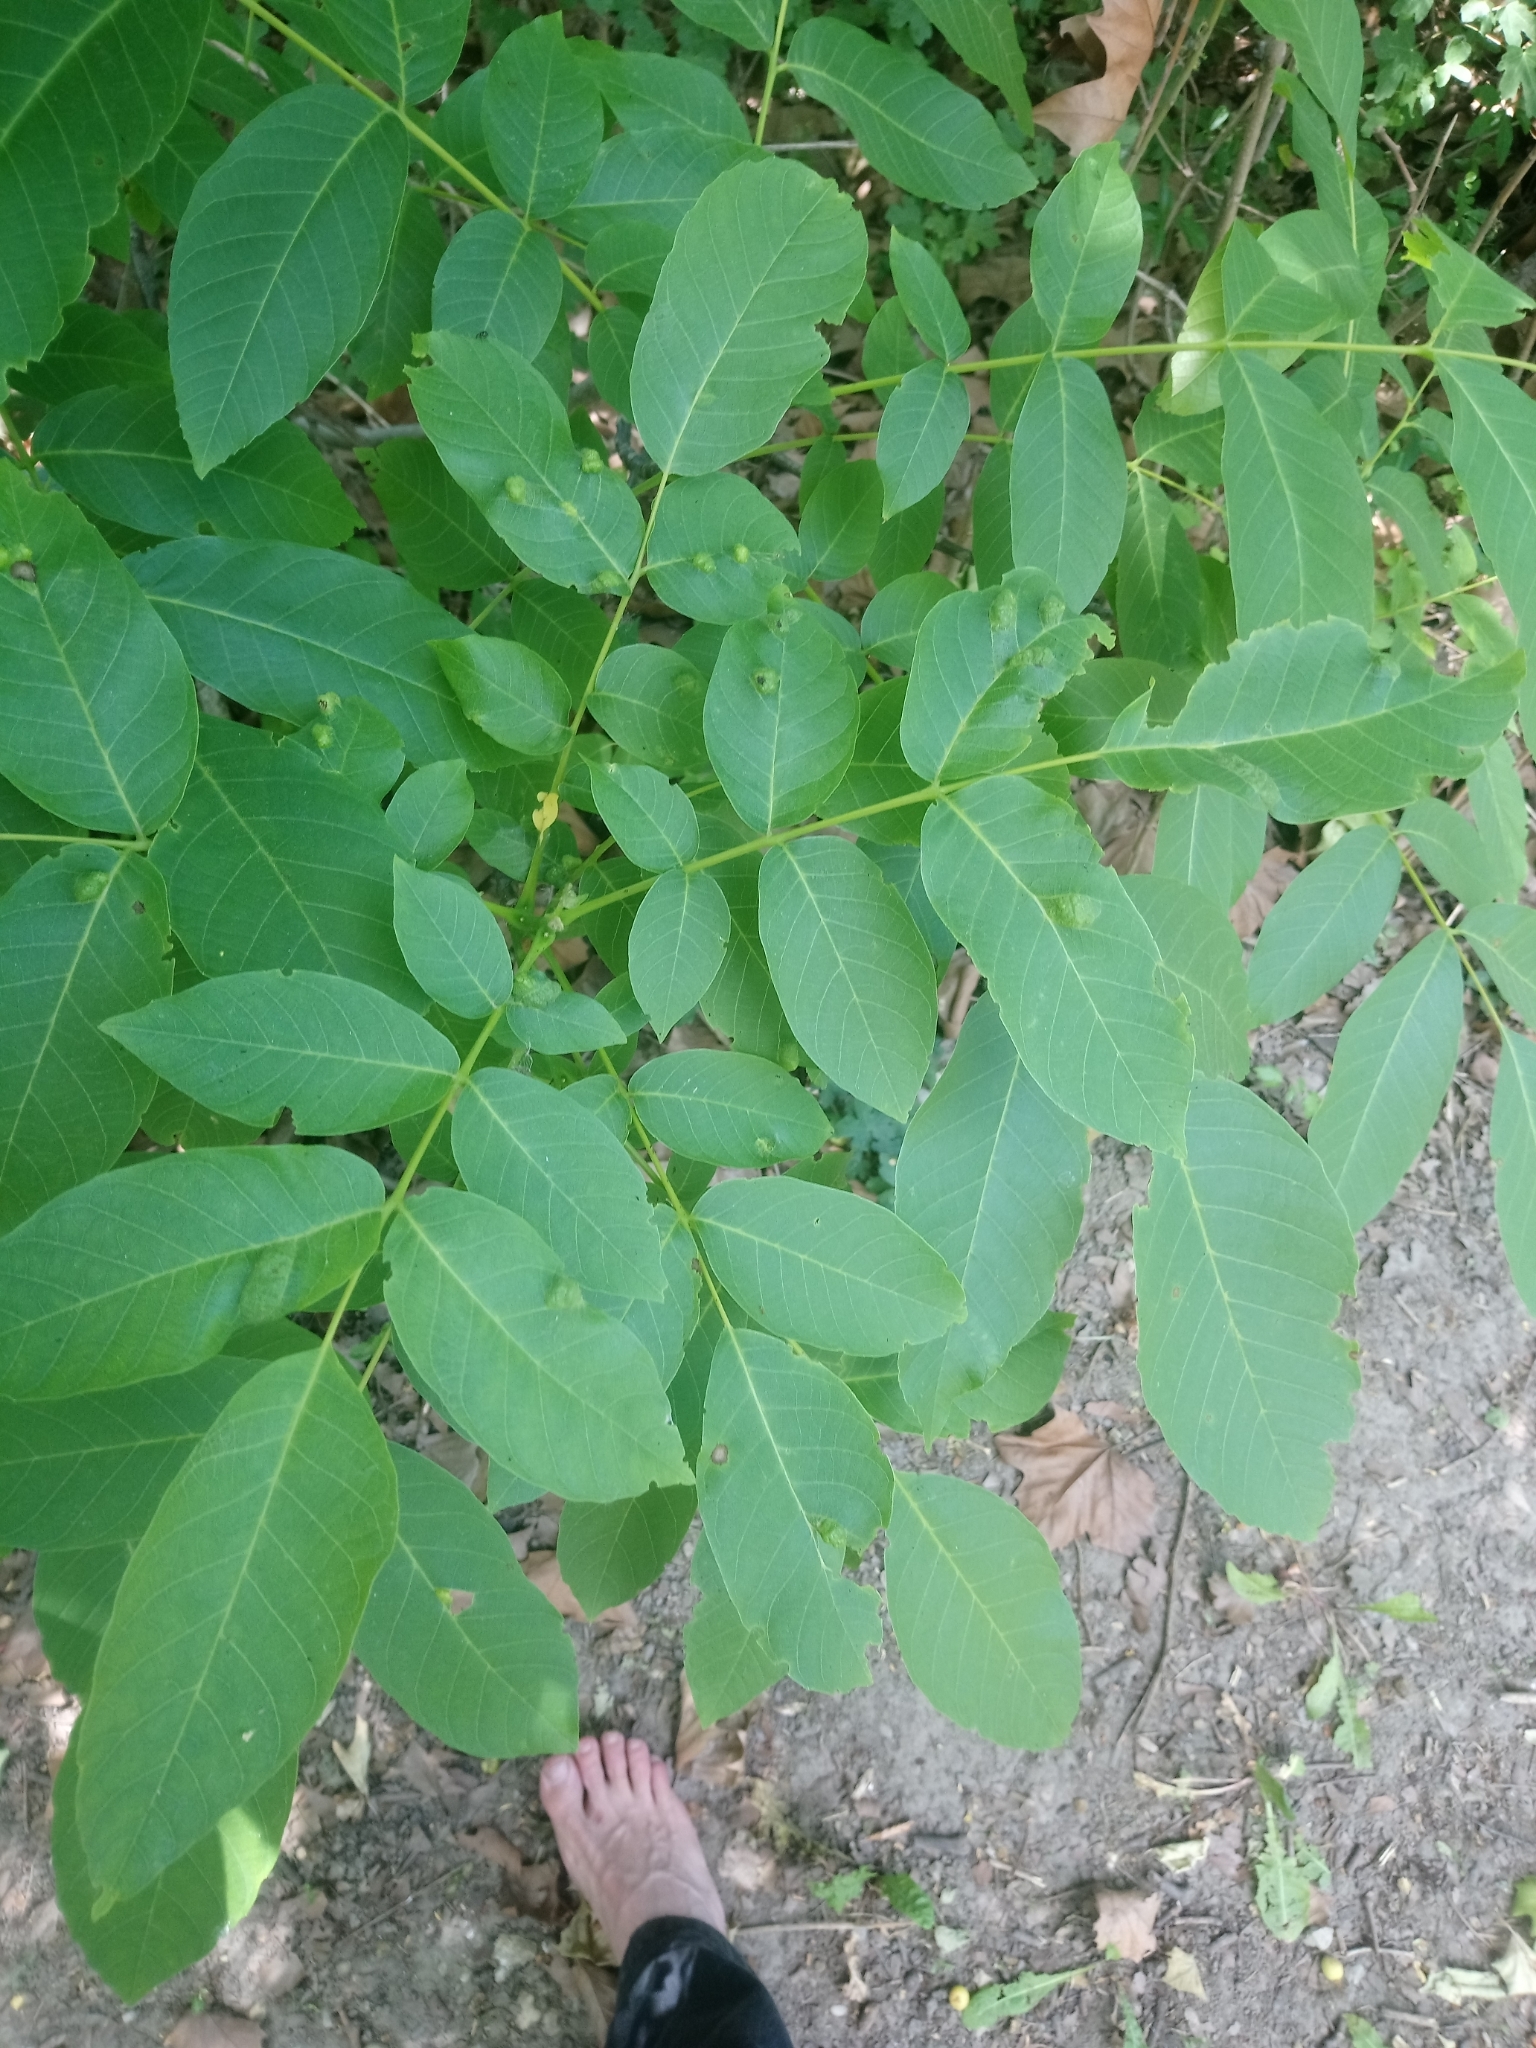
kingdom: Plantae
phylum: Tracheophyta
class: Magnoliopsida
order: Fagales
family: Juglandaceae
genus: Juglans
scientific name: Juglans regia
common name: Walnut
